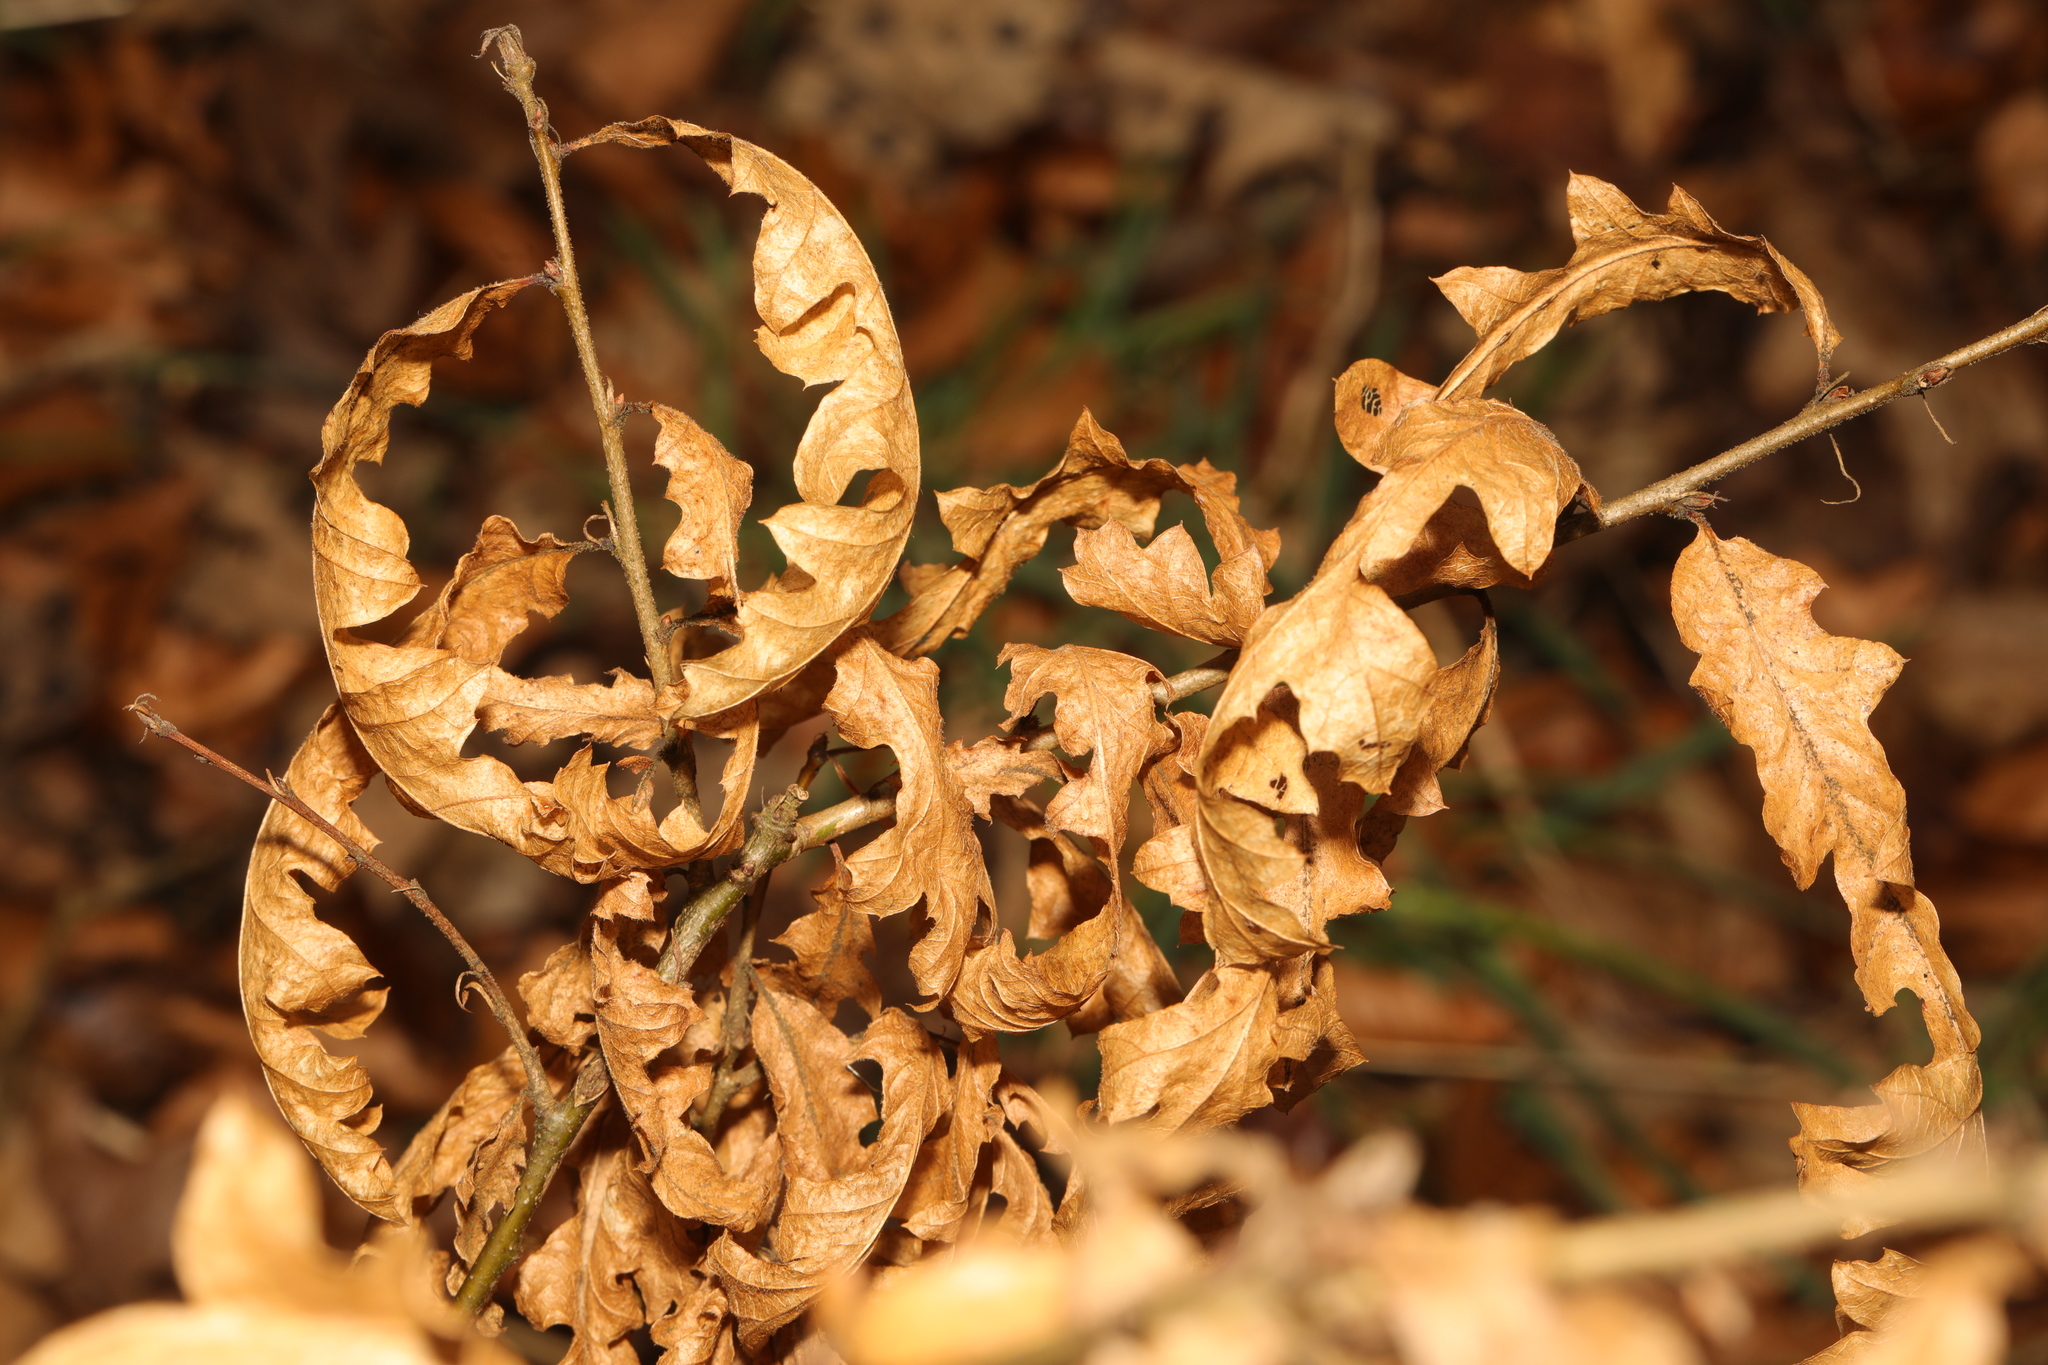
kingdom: Plantae
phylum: Tracheophyta
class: Magnoliopsida
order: Fagales
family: Fagaceae
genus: Quercus
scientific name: Quercus cerris
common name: Turkey oak
